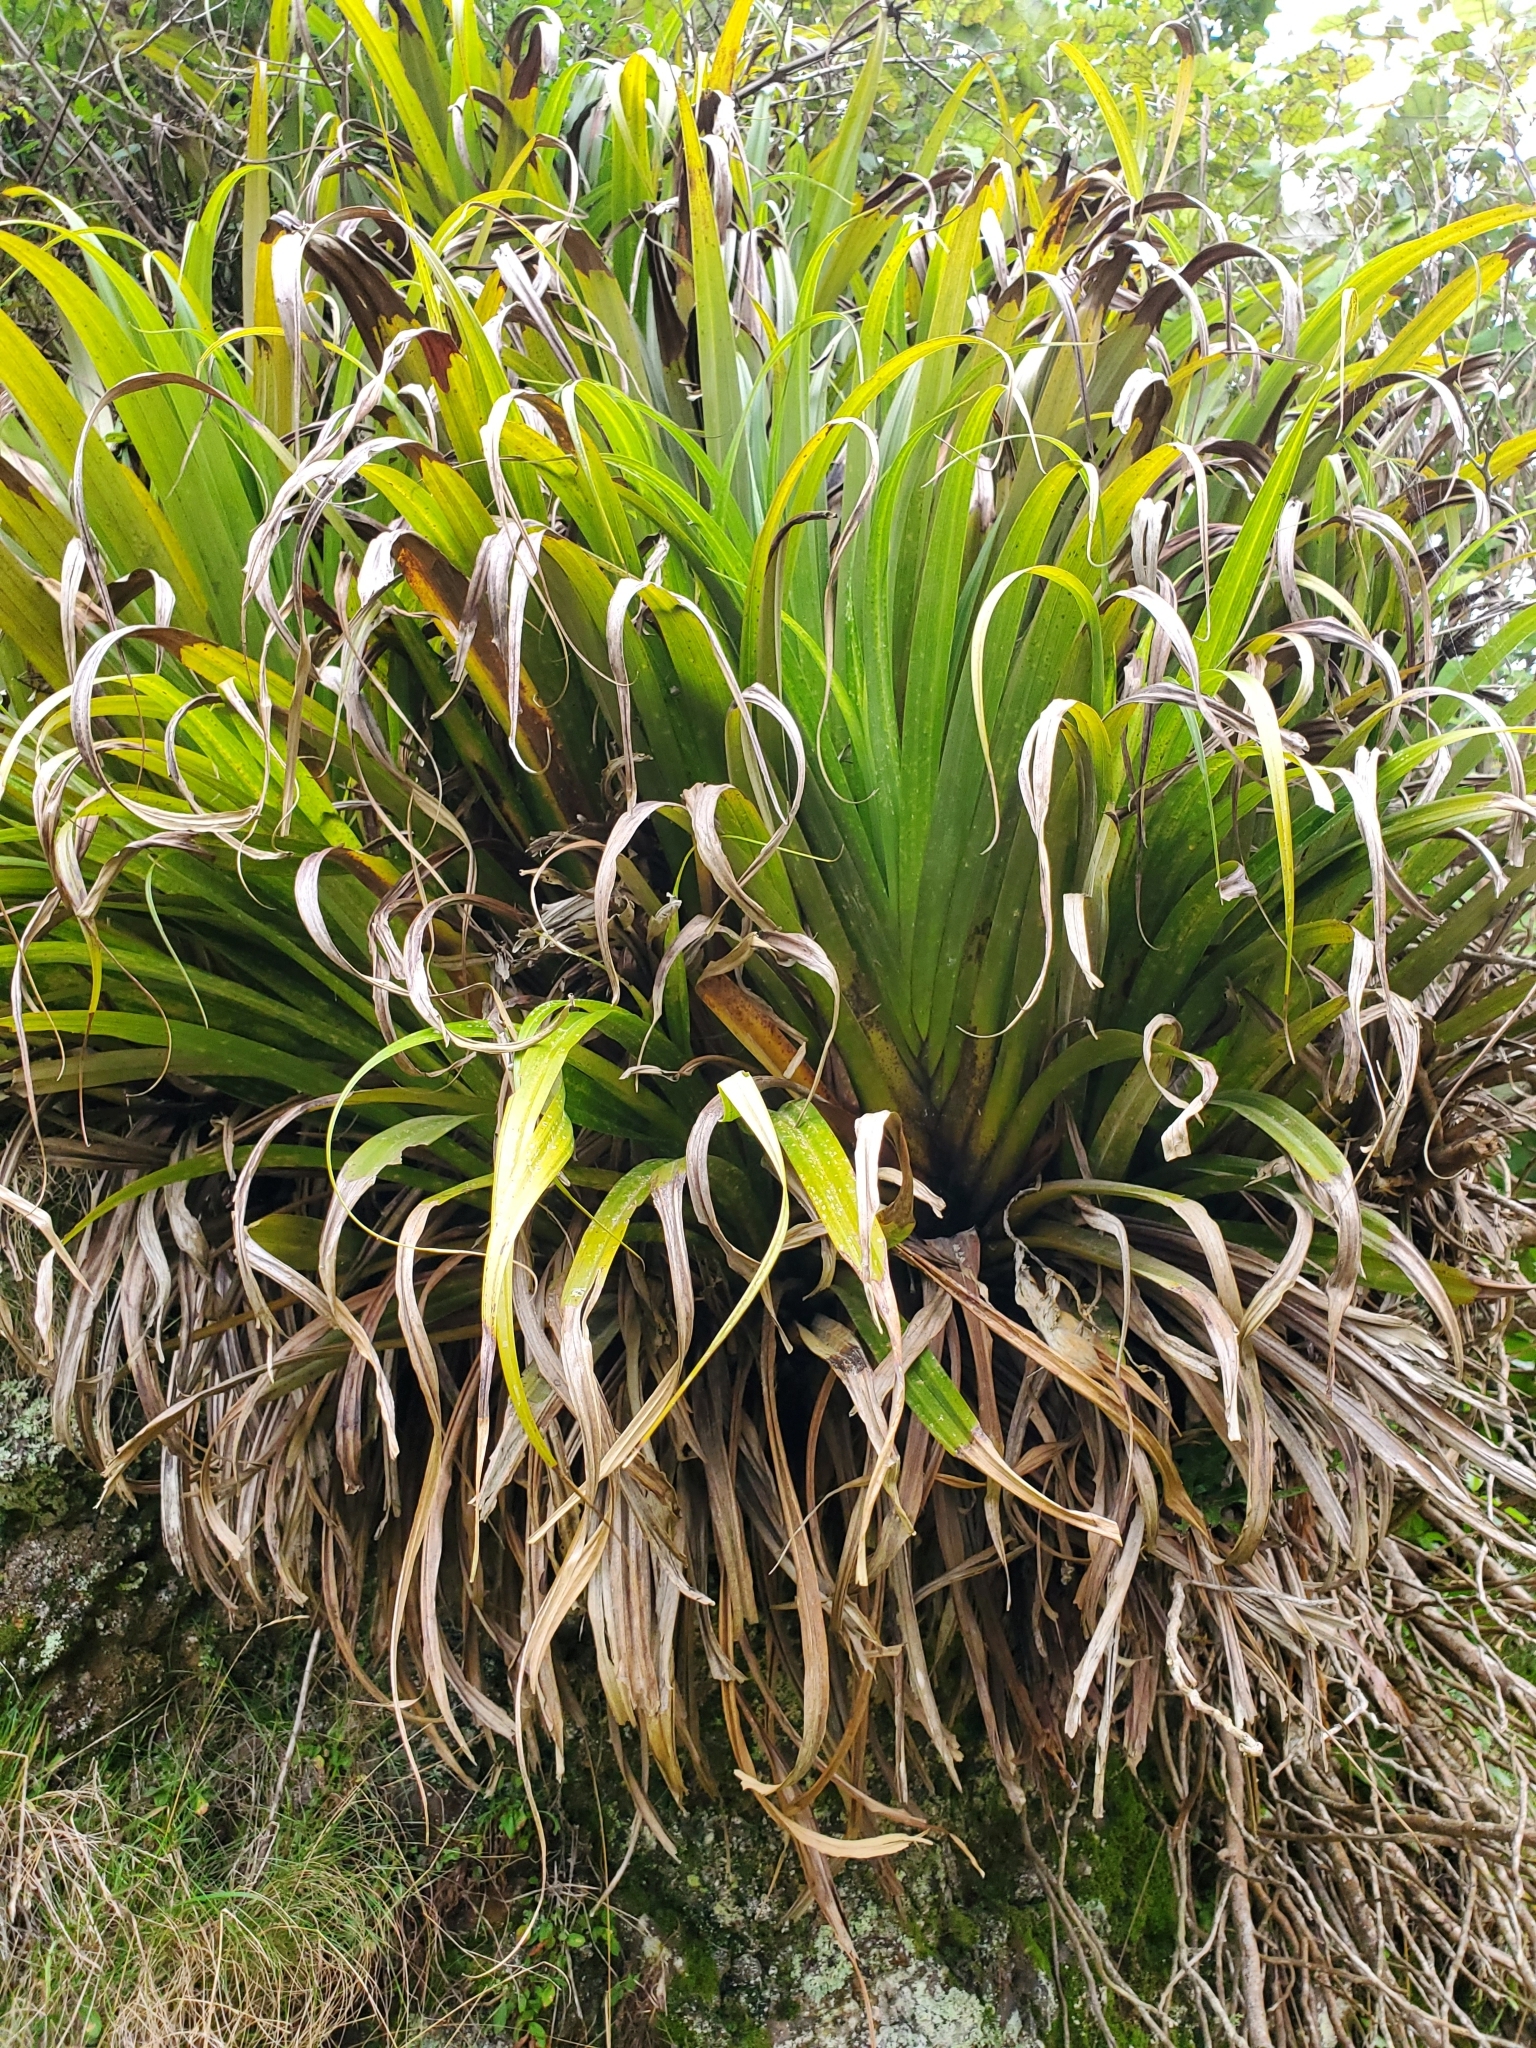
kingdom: Plantae
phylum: Tracheophyta
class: Liliopsida
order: Asparagales
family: Asteliaceae
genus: Astelia
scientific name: Astelia hastata
